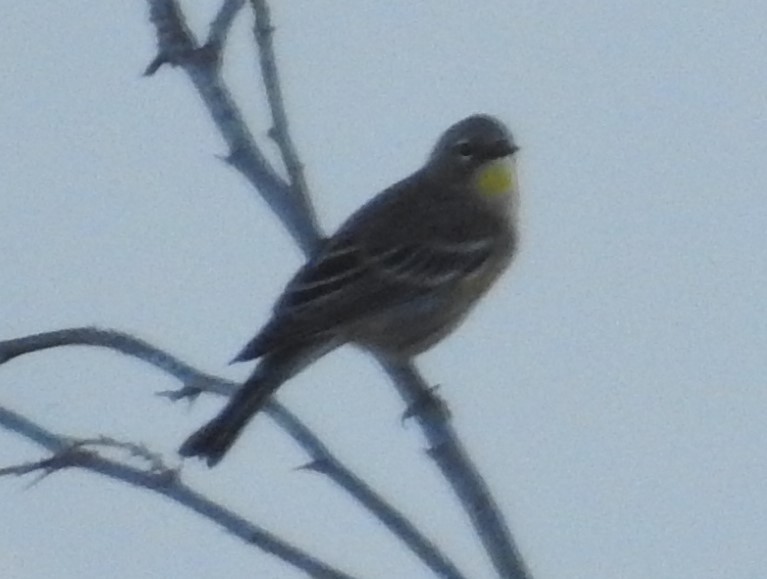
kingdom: Animalia
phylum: Chordata
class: Aves
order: Passeriformes
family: Parulidae
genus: Setophaga
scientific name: Setophaga coronata
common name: Myrtle warbler
